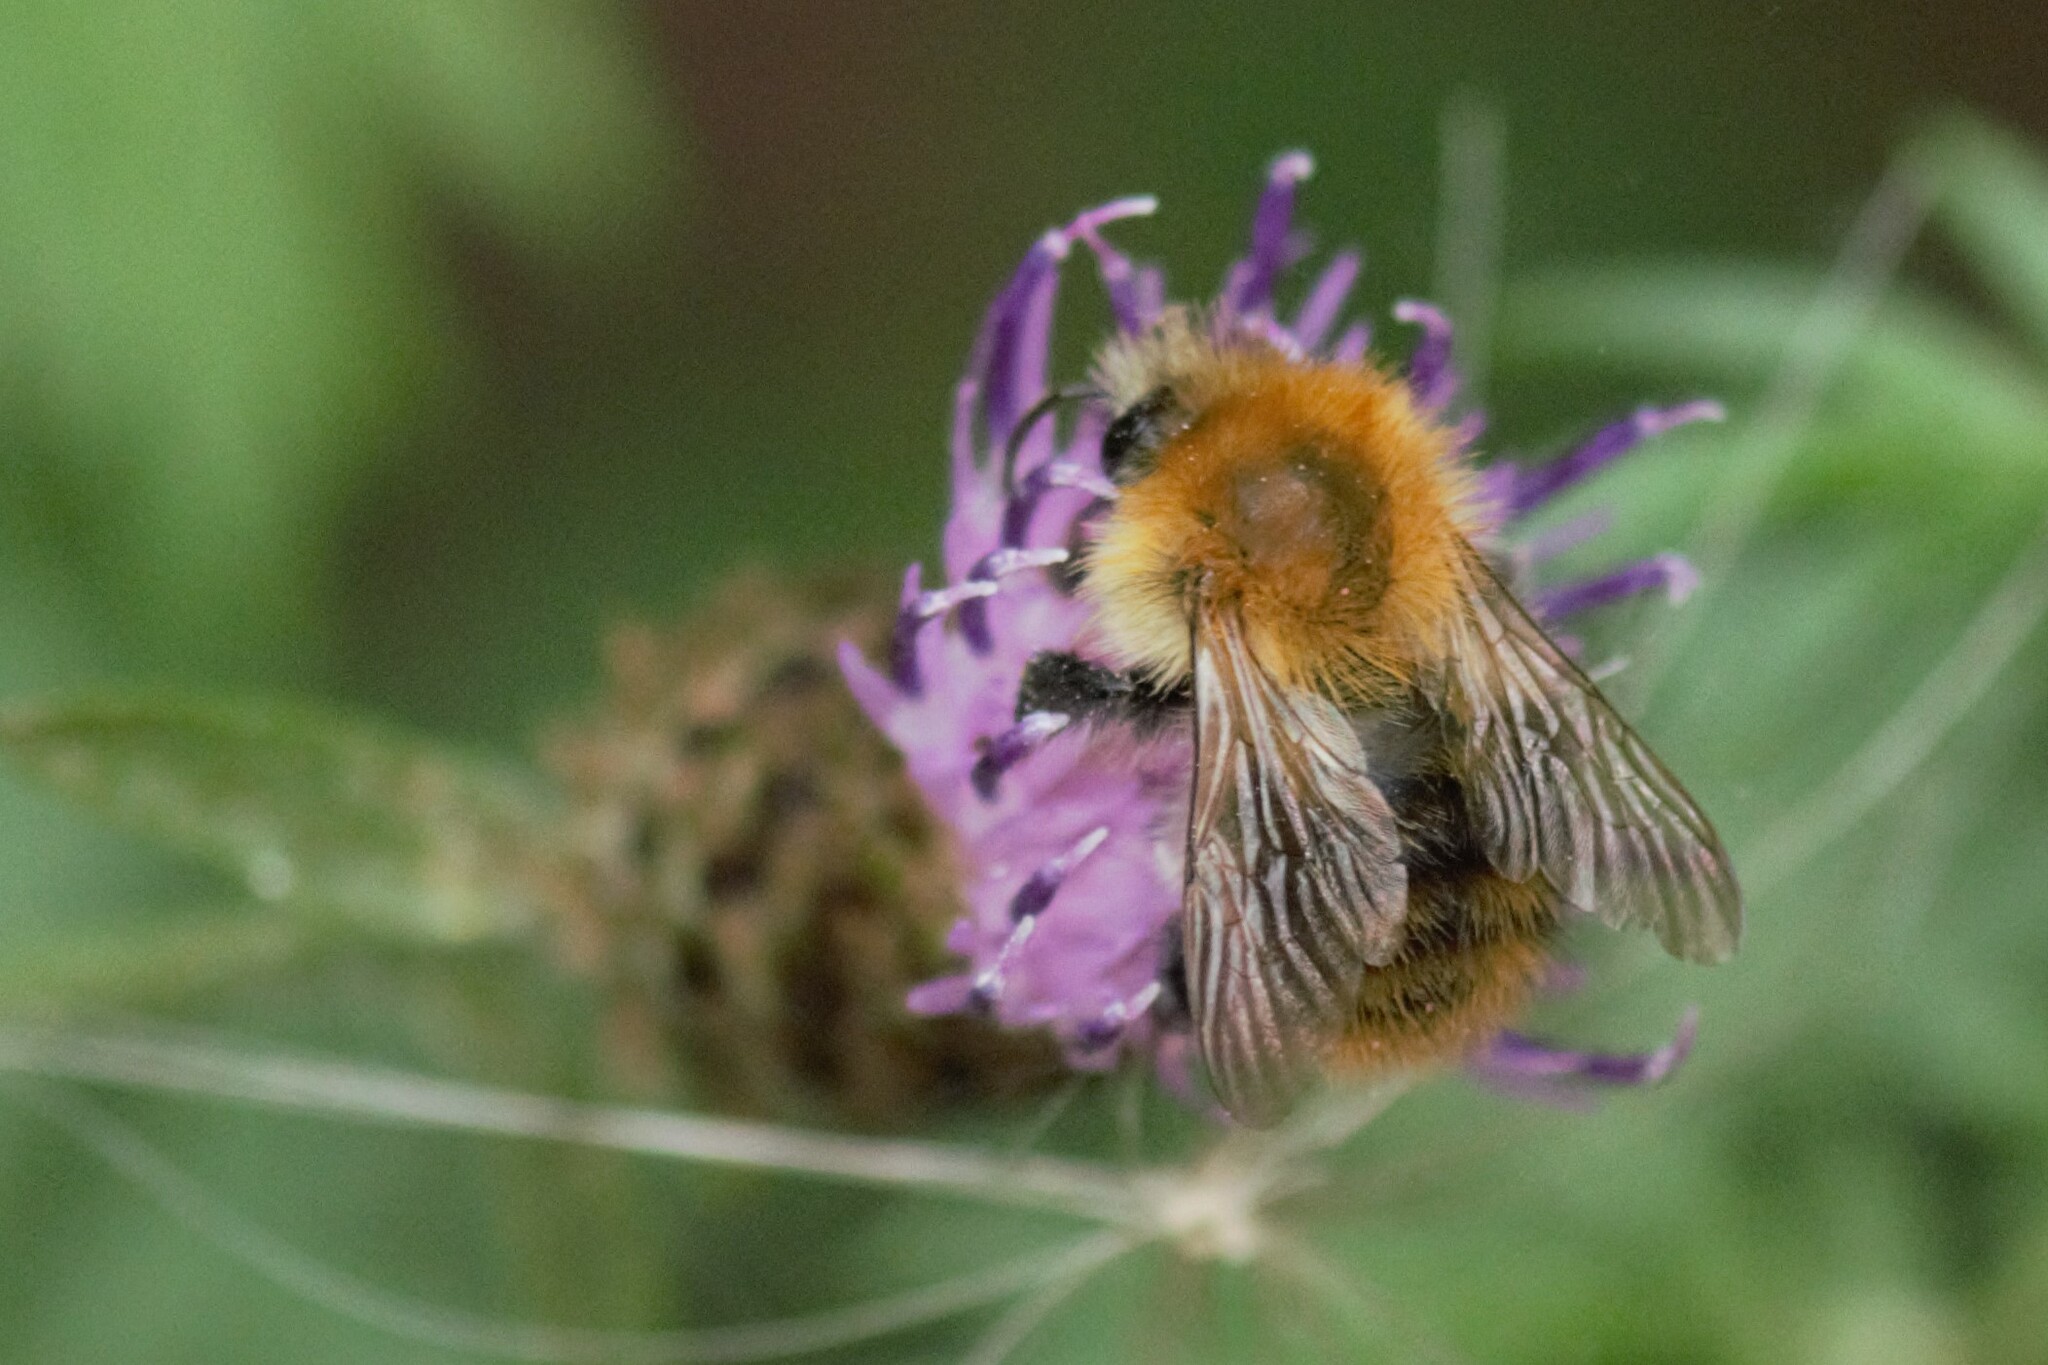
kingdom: Animalia
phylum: Arthropoda
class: Insecta
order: Hymenoptera
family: Apidae
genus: Bombus
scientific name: Bombus pascuorum
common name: Common carder bee
